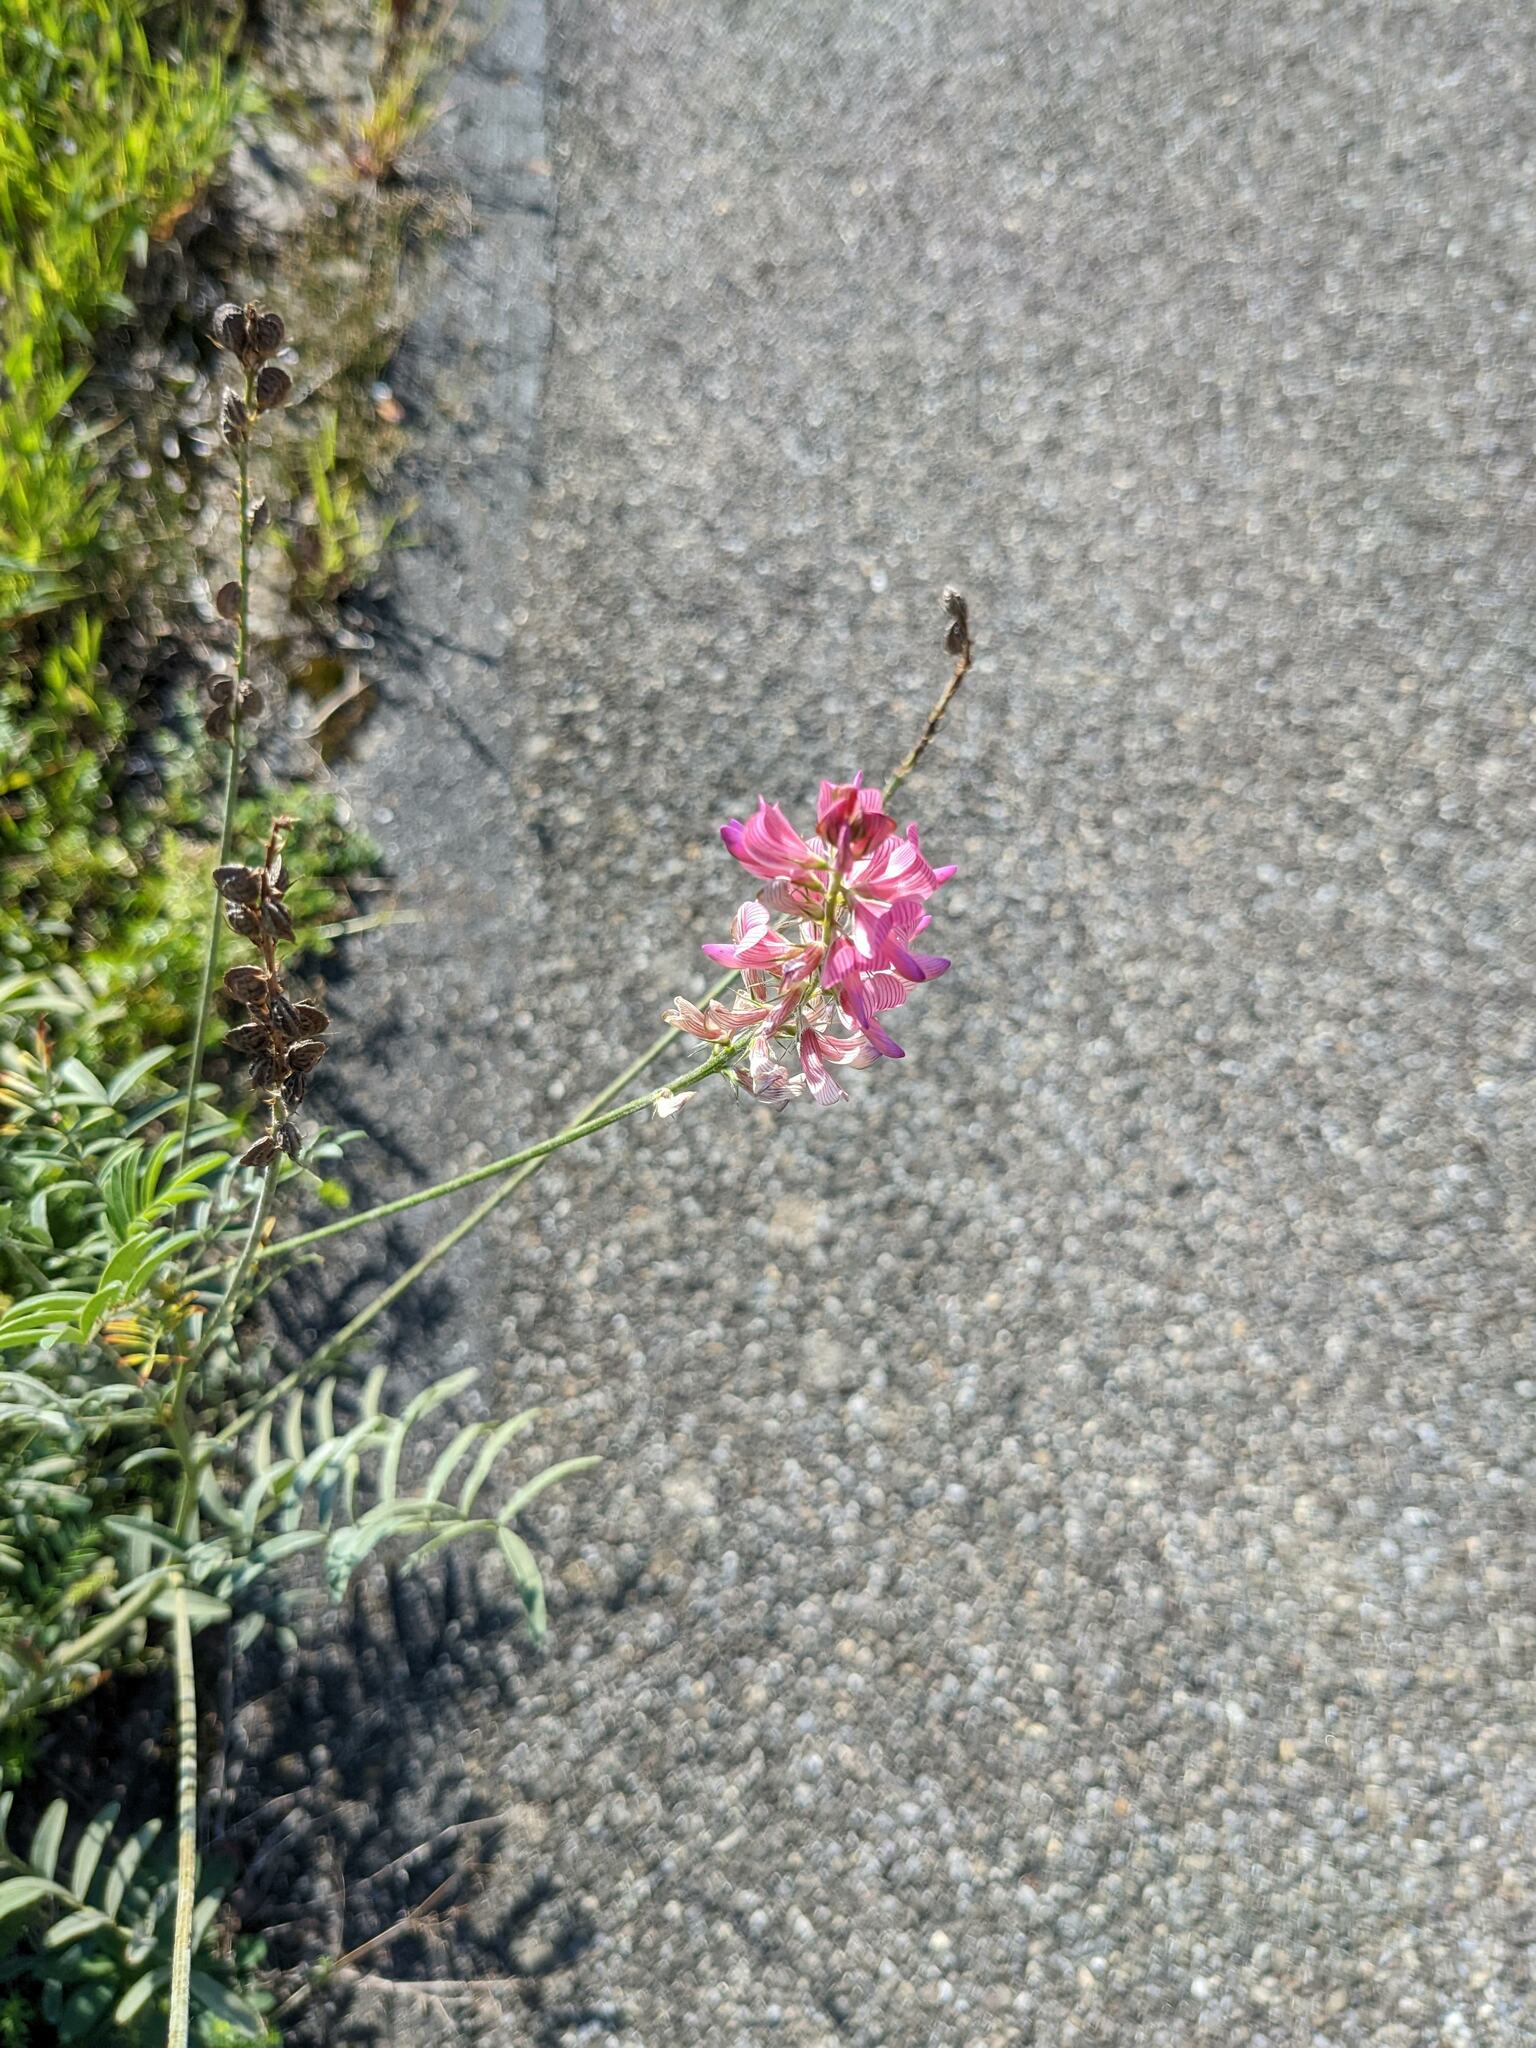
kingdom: Plantae
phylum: Tracheophyta
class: Magnoliopsida
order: Fabales
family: Fabaceae
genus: Onobrychis
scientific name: Onobrychis viciifolia
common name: Sainfoin
